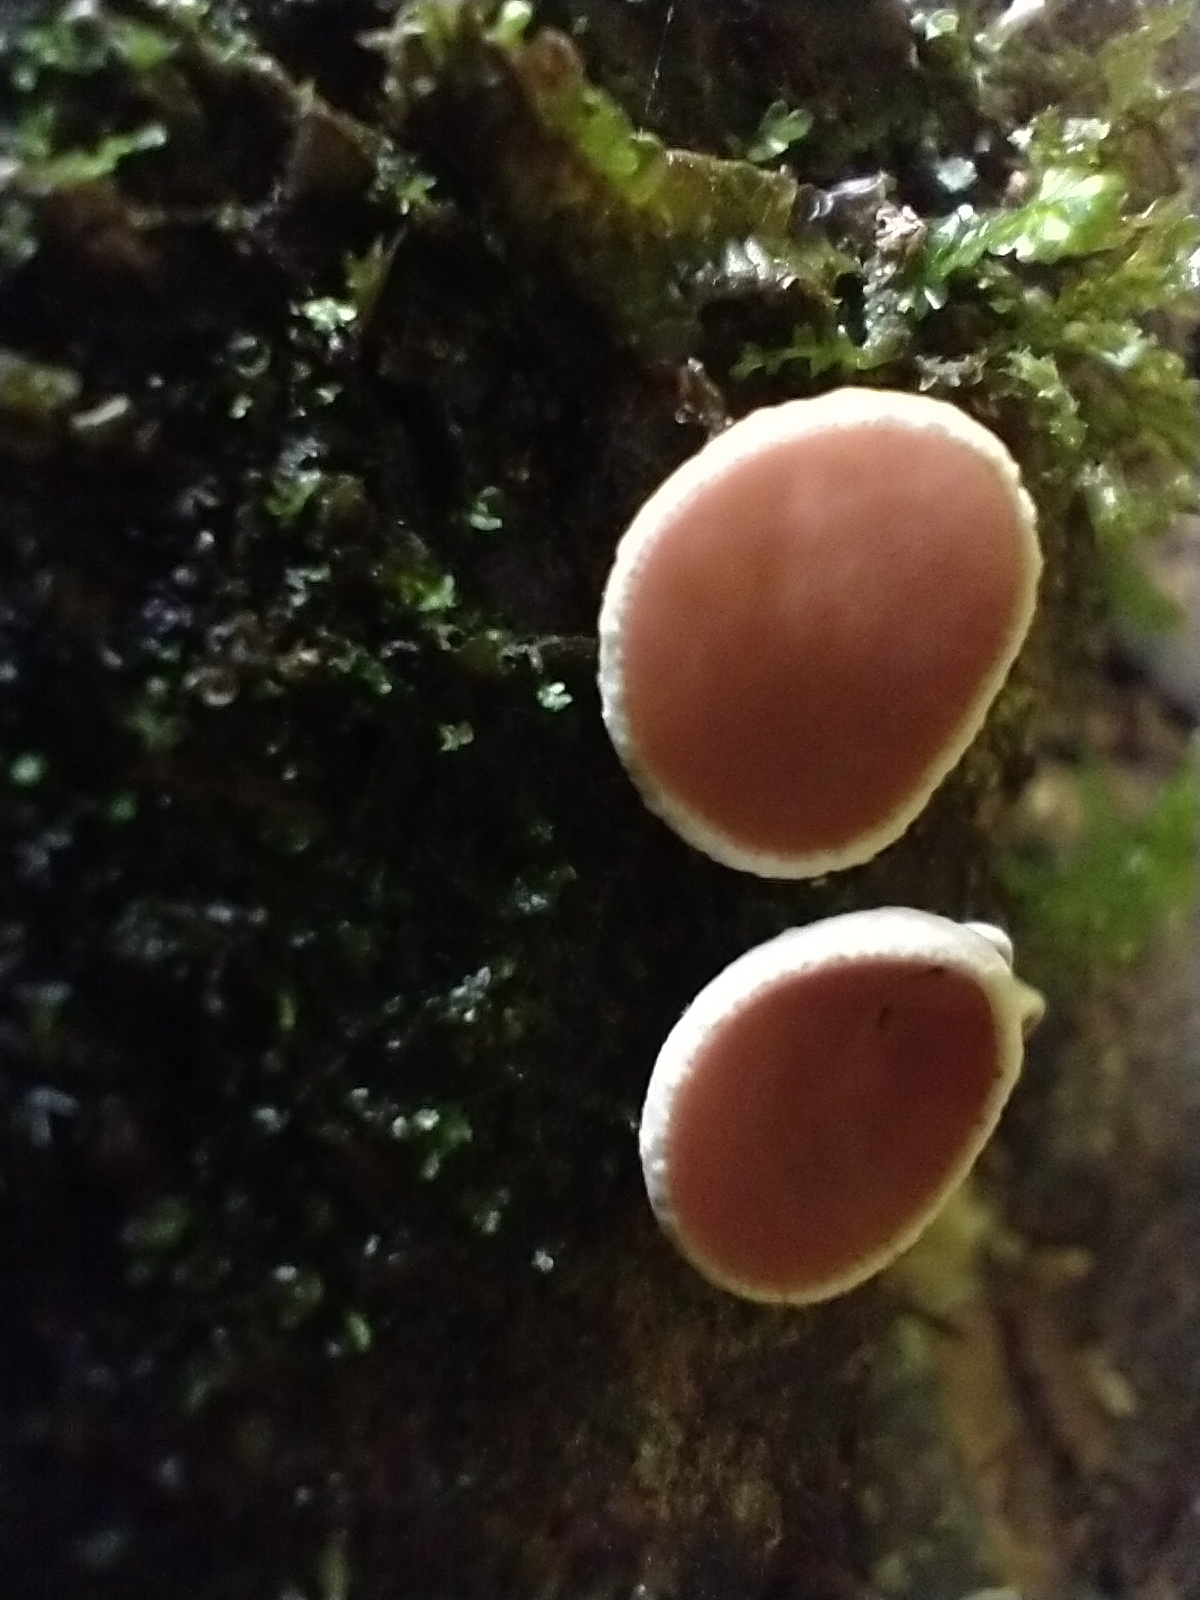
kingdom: Fungi
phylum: Ascomycota
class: Pezizomycetes
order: Pezizales
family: Sarcoscyphaceae
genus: Phillipsia
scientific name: Phillipsia domingensis
